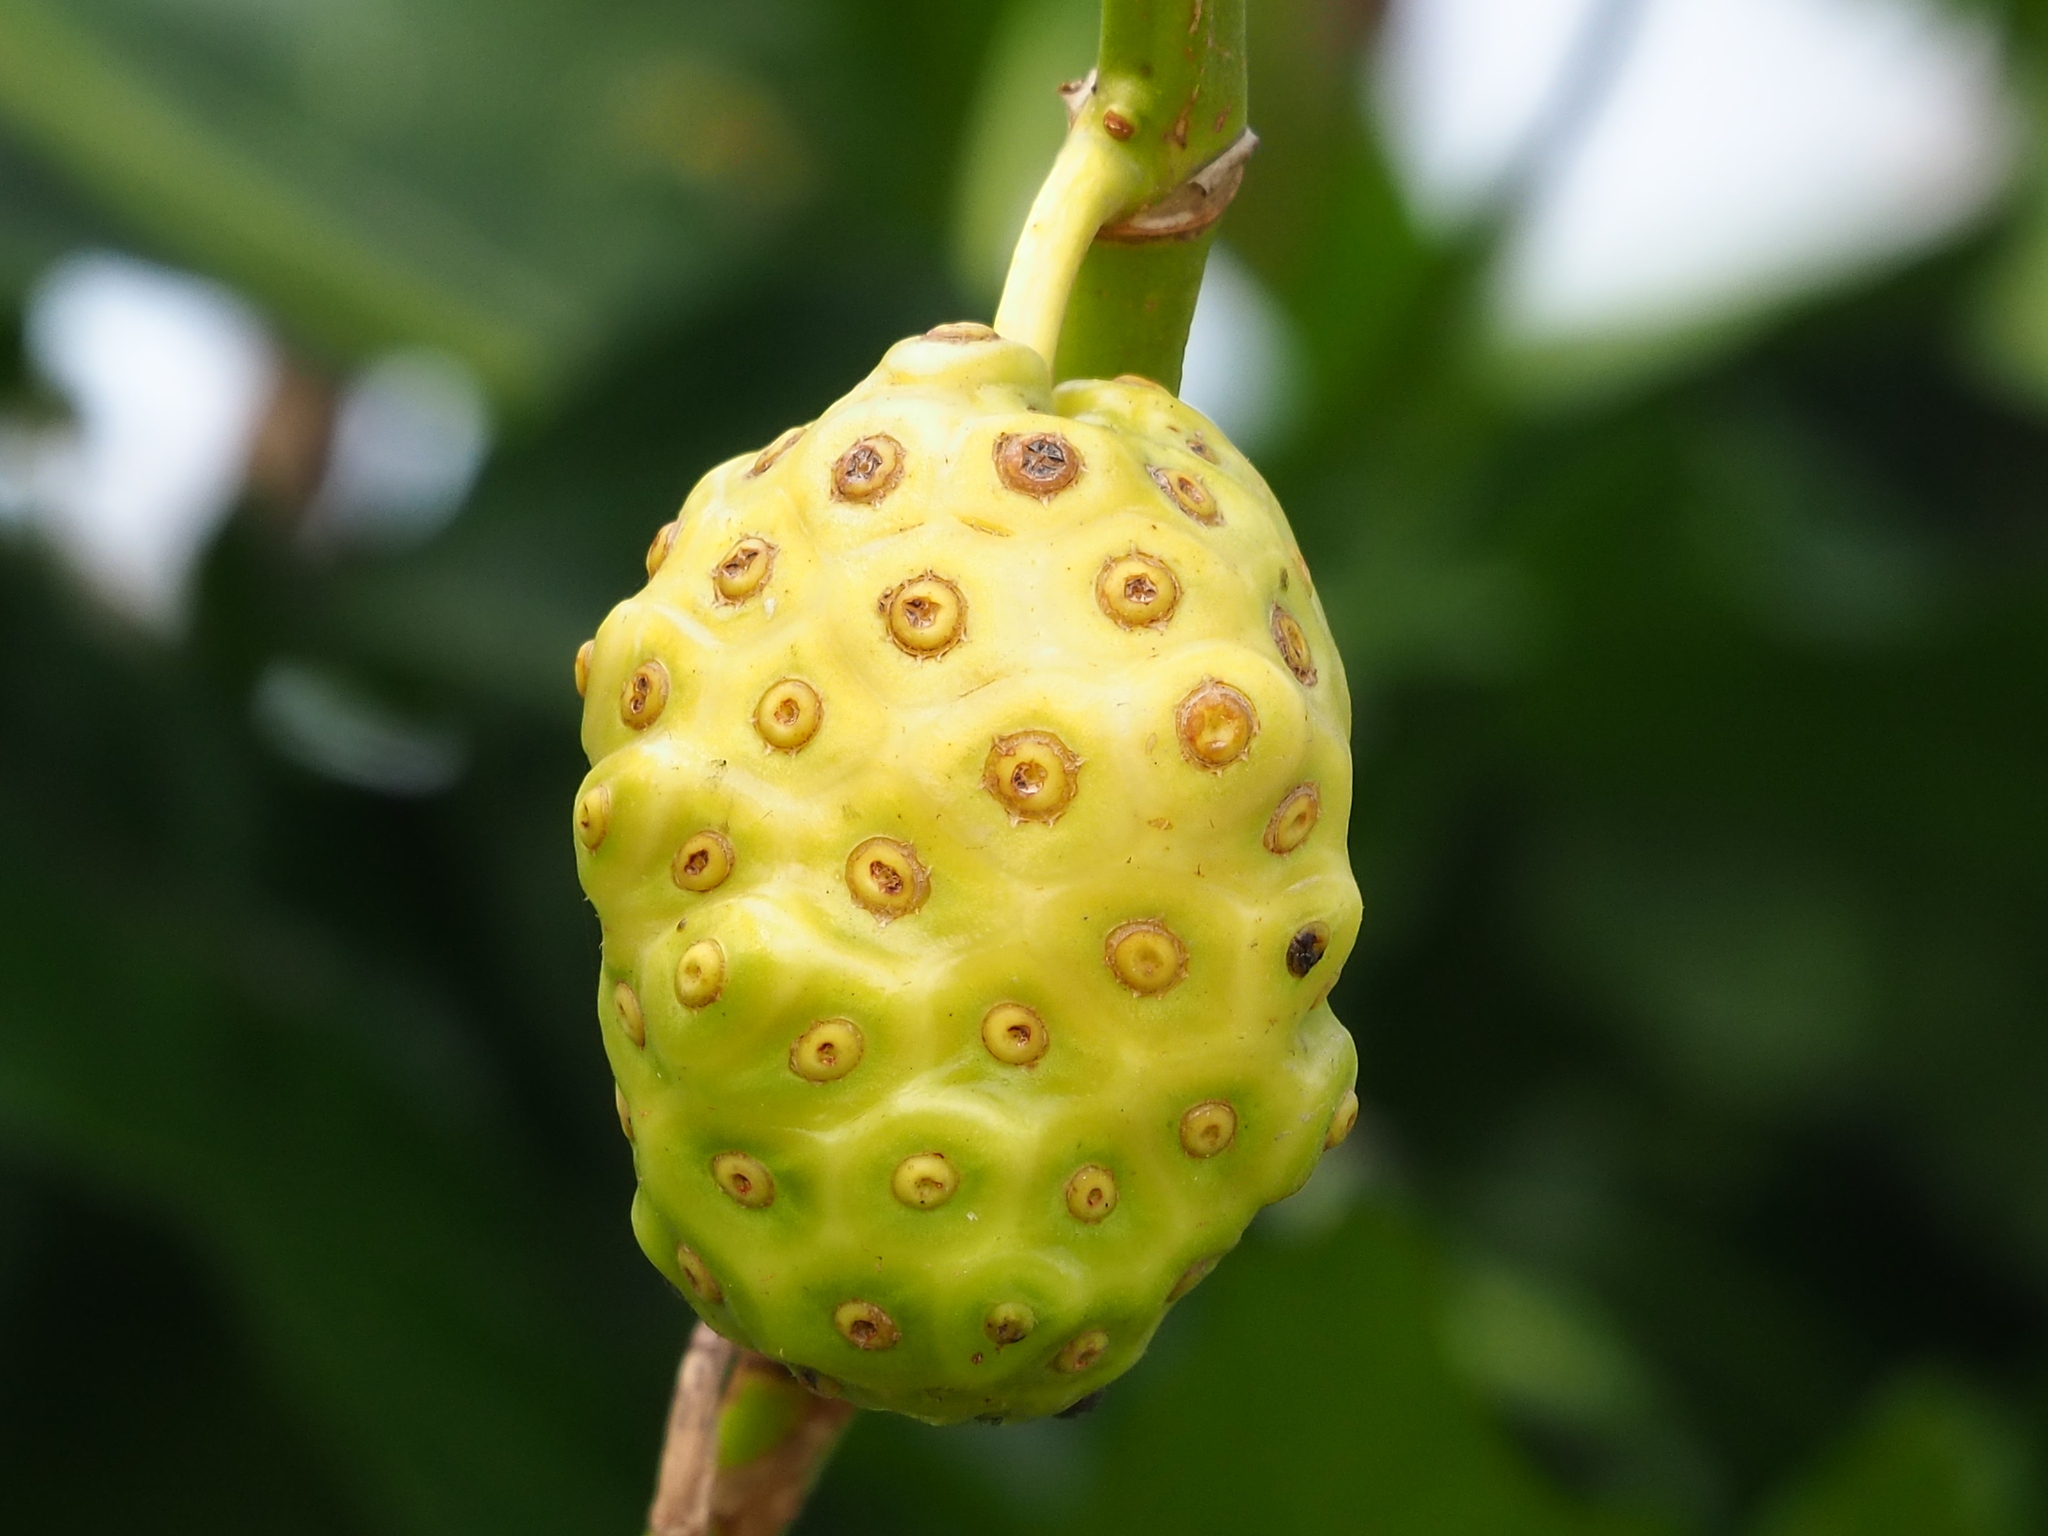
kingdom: Plantae
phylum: Tracheophyta
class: Magnoliopsida
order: Gentianales
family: Rubiaceae
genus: Morinda
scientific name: Morinda citrifolia
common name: Indian-mulberry
